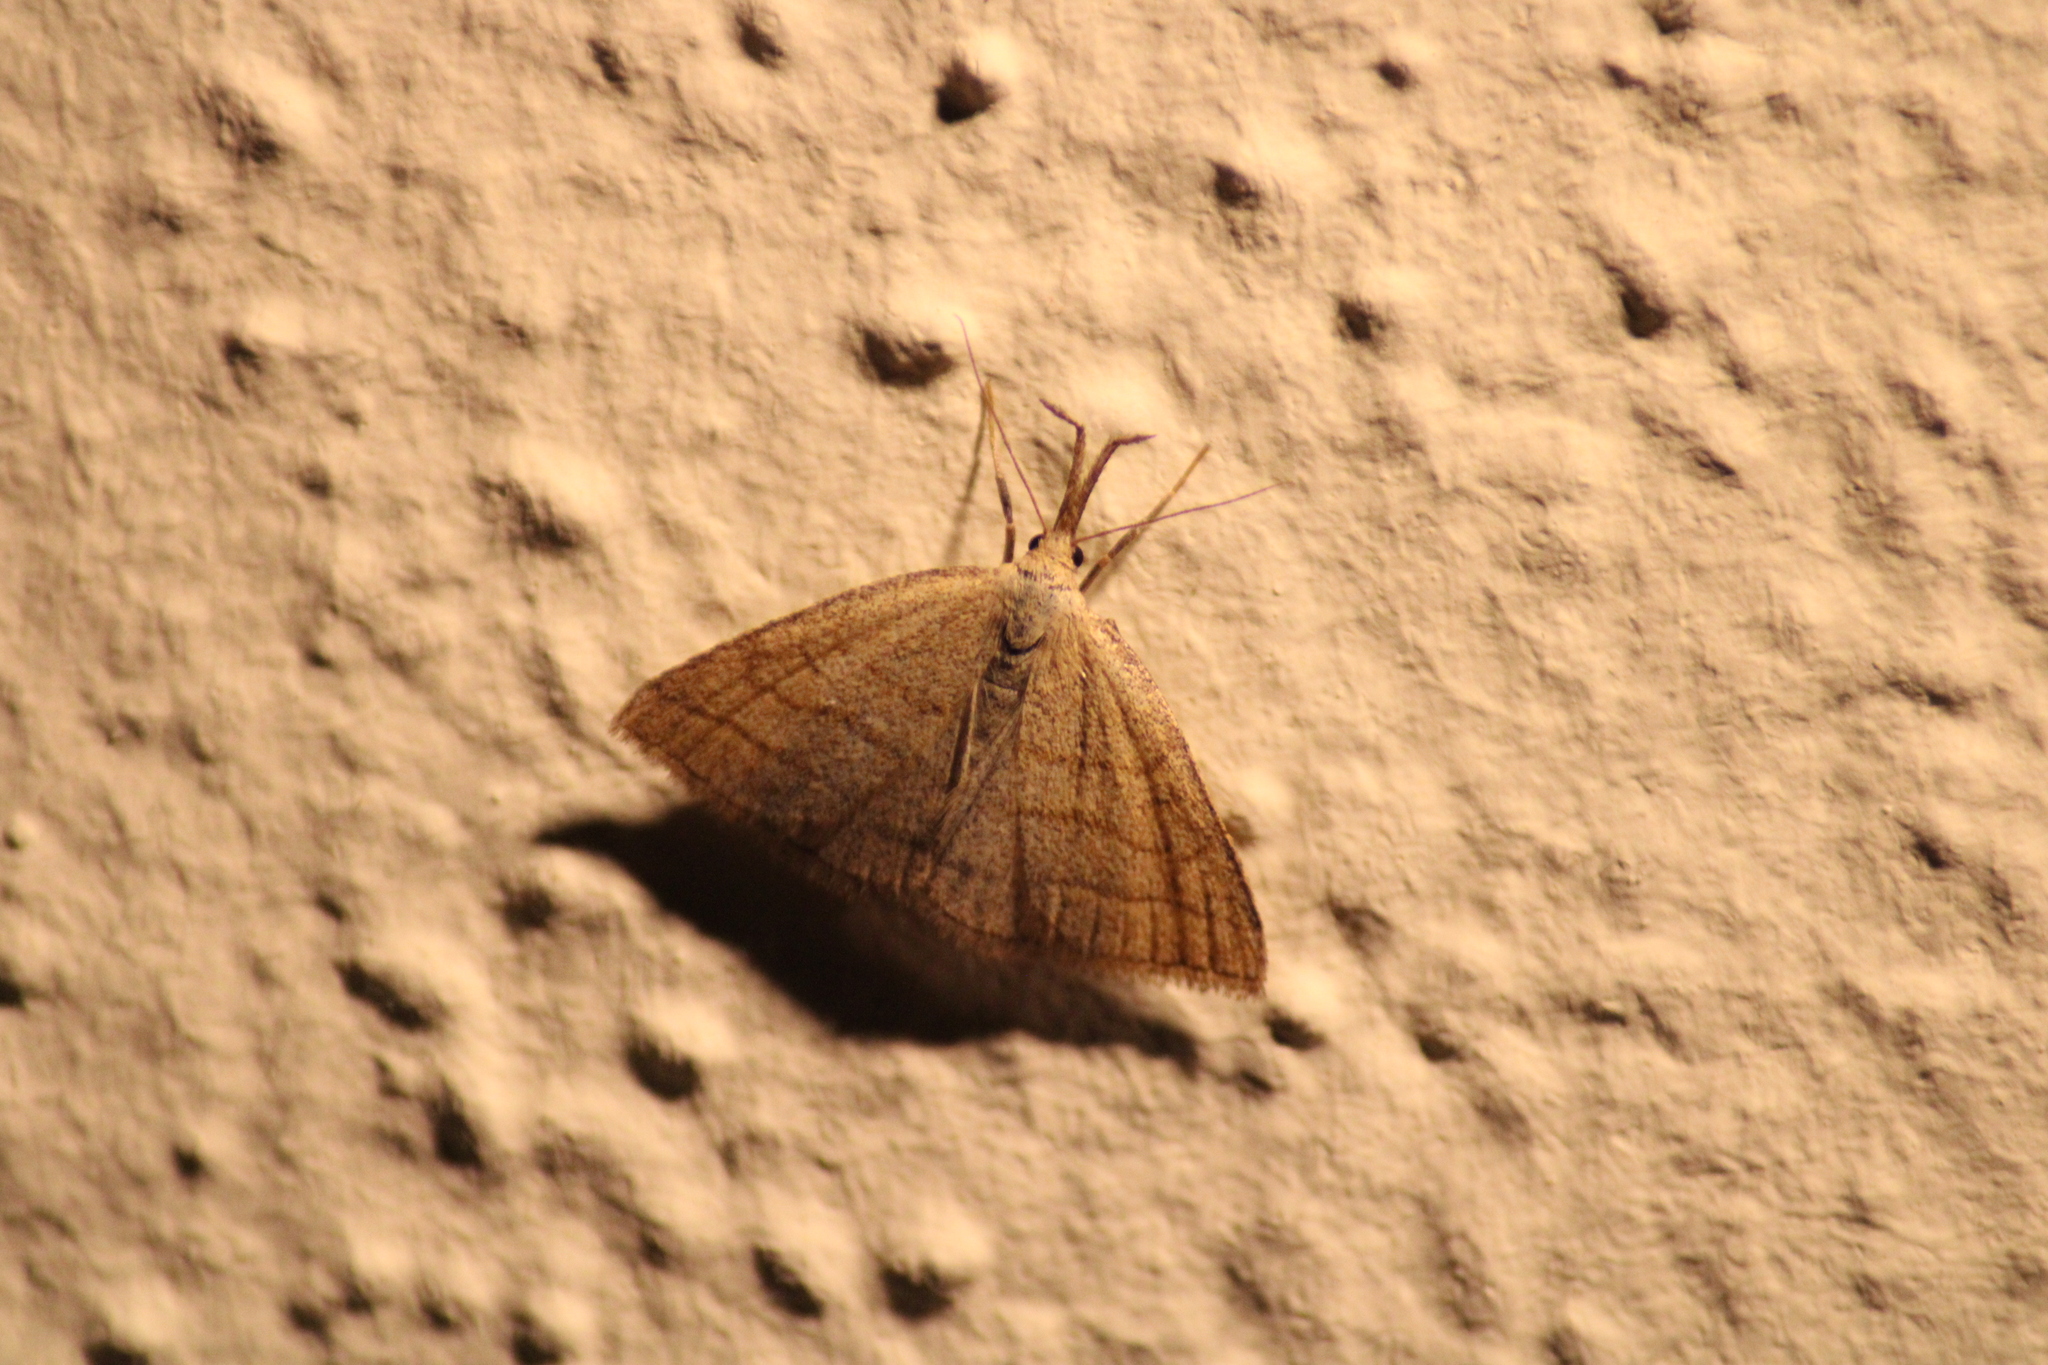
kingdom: Animalia
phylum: Arthropoda
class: Insecta
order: Lepidoptera
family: Erebidae
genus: Polypogon
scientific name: Polypogon tentacularia
